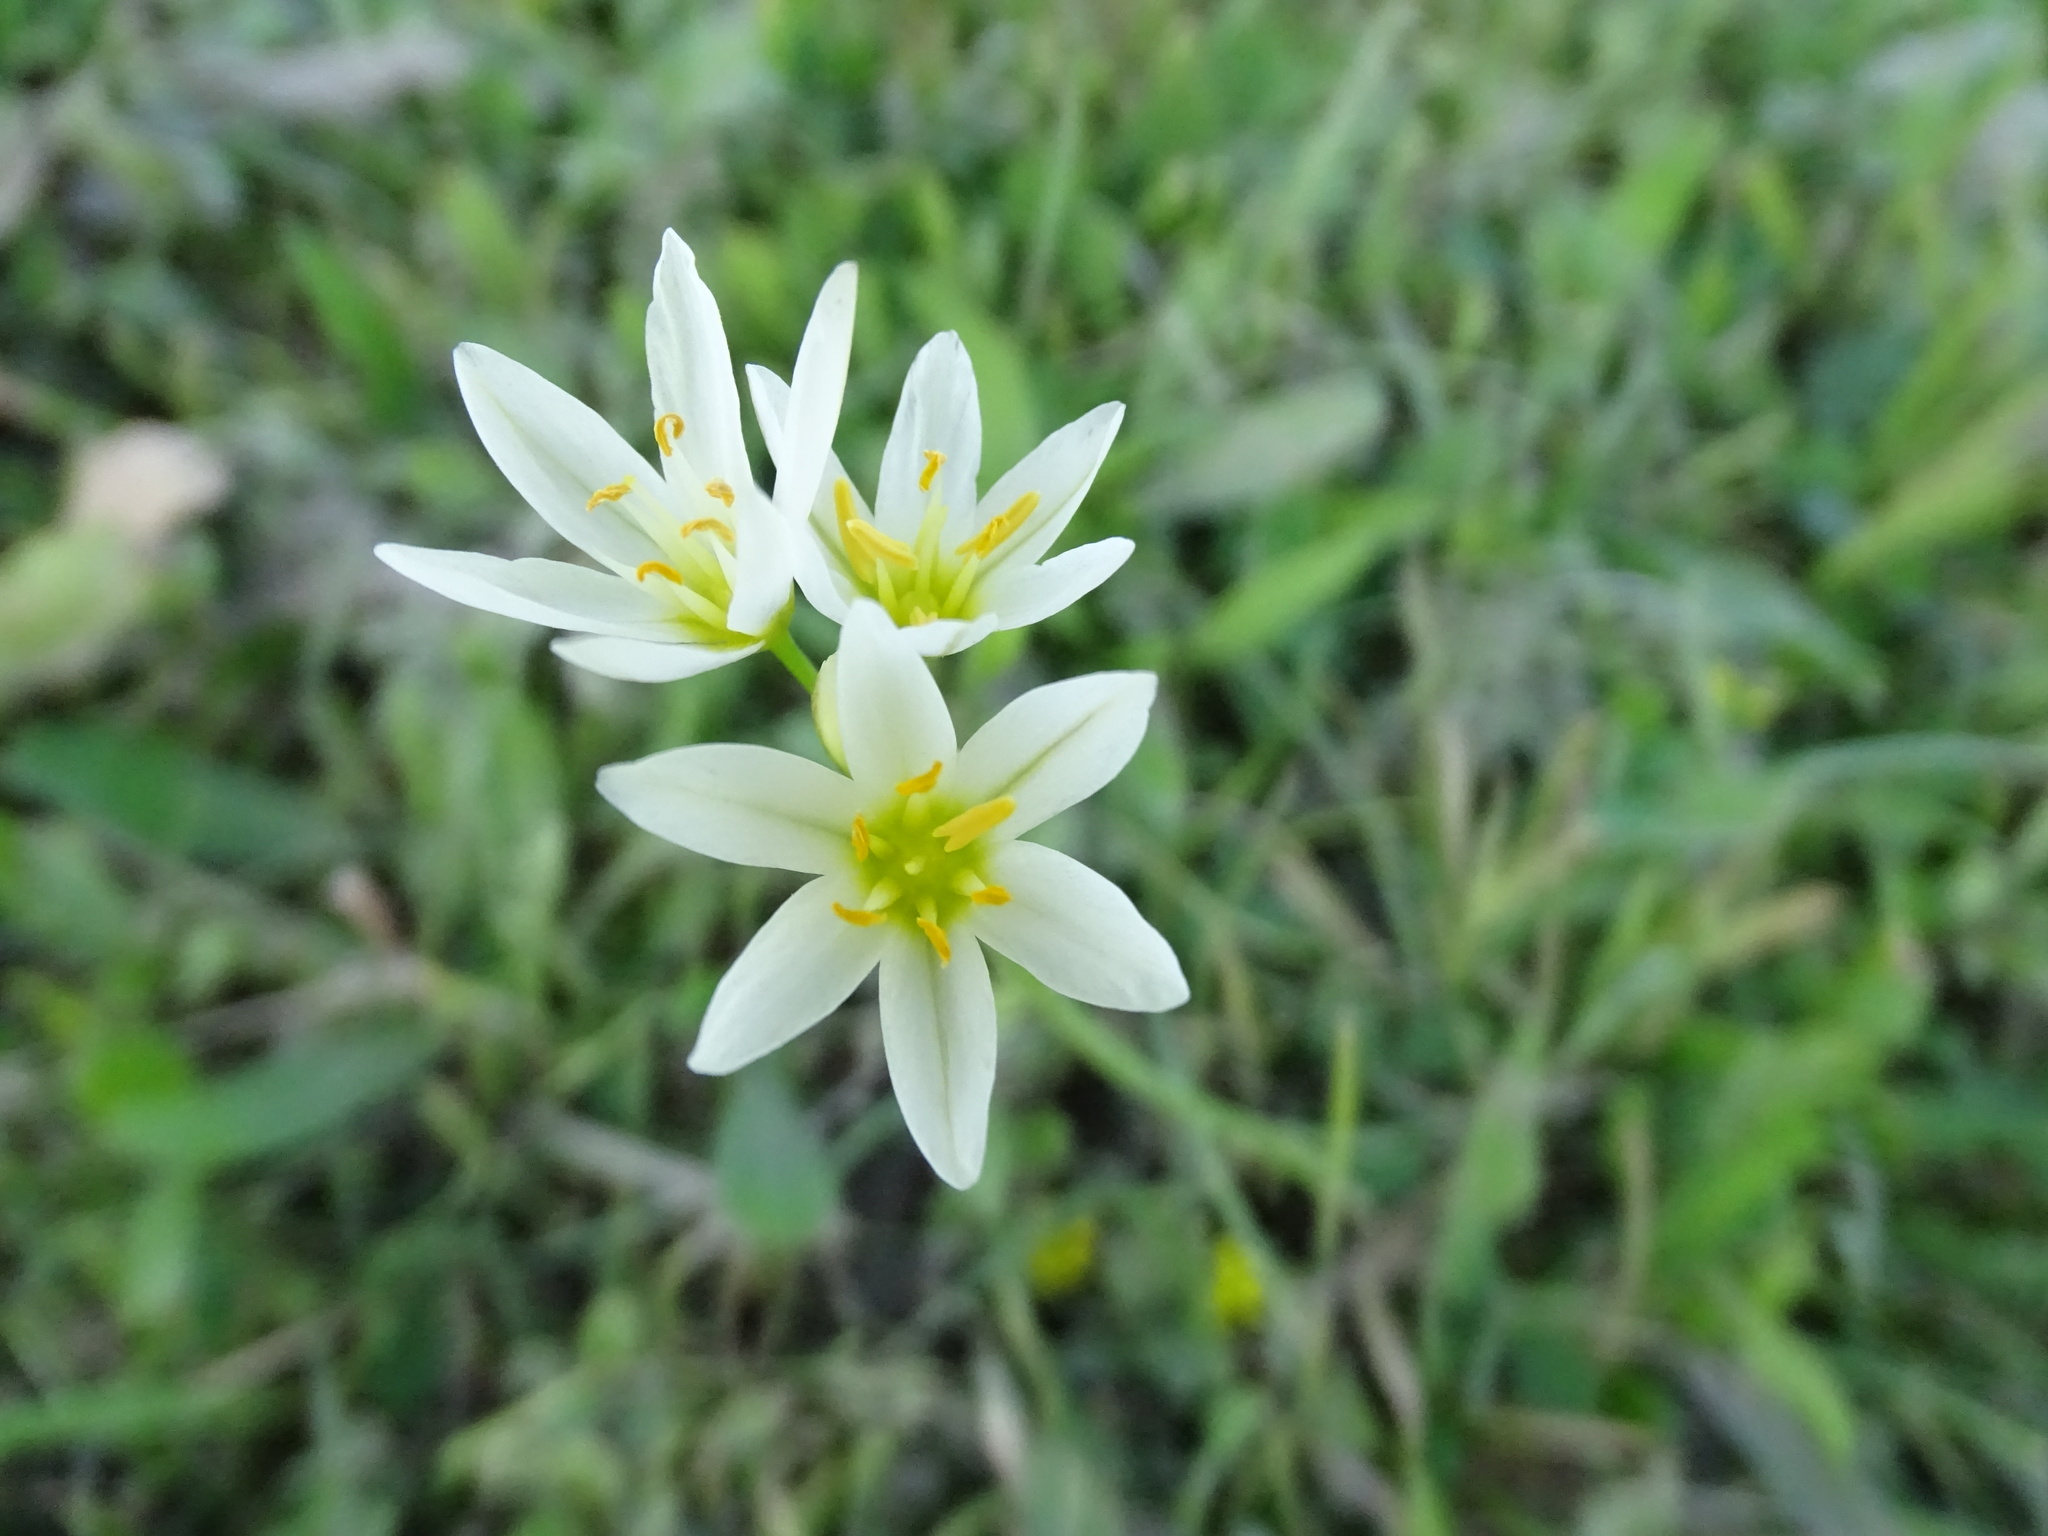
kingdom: Plantae
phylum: Tracheophyta
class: Liliopsida
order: Asparagales
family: Amaryllidaceae
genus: Nothoscordum
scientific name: Nothoscordum bivalve
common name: Crow-poison
